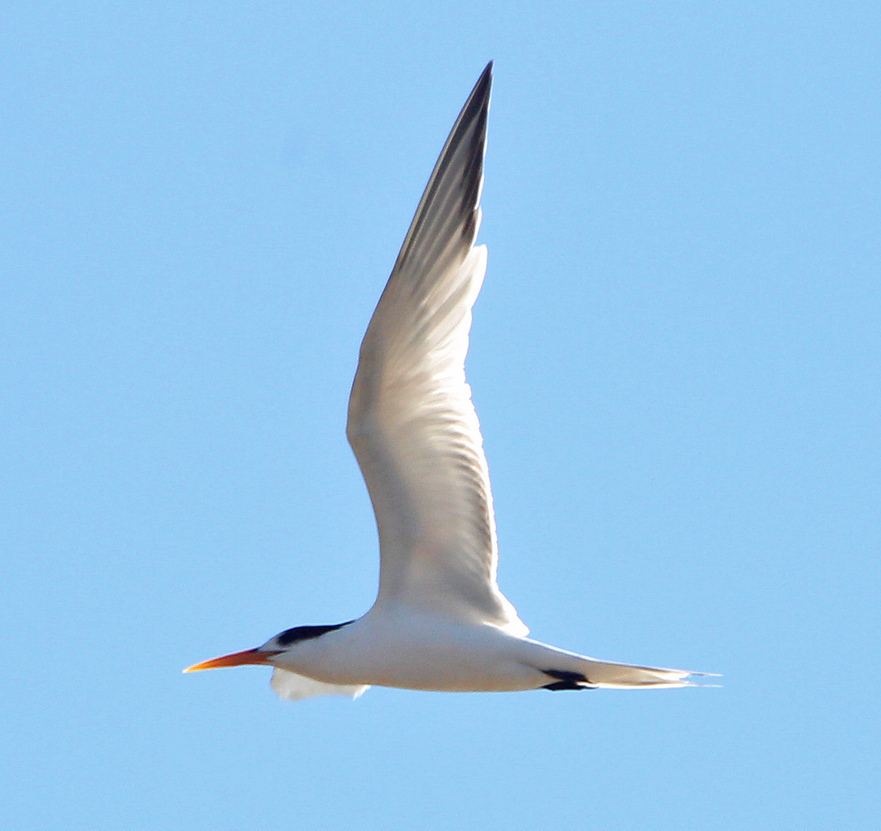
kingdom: Animalia
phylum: Chordata
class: Aves
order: Charadriiformes
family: Laridae
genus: Thalasseus
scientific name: Thalasseus elegans
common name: Elegant tern
